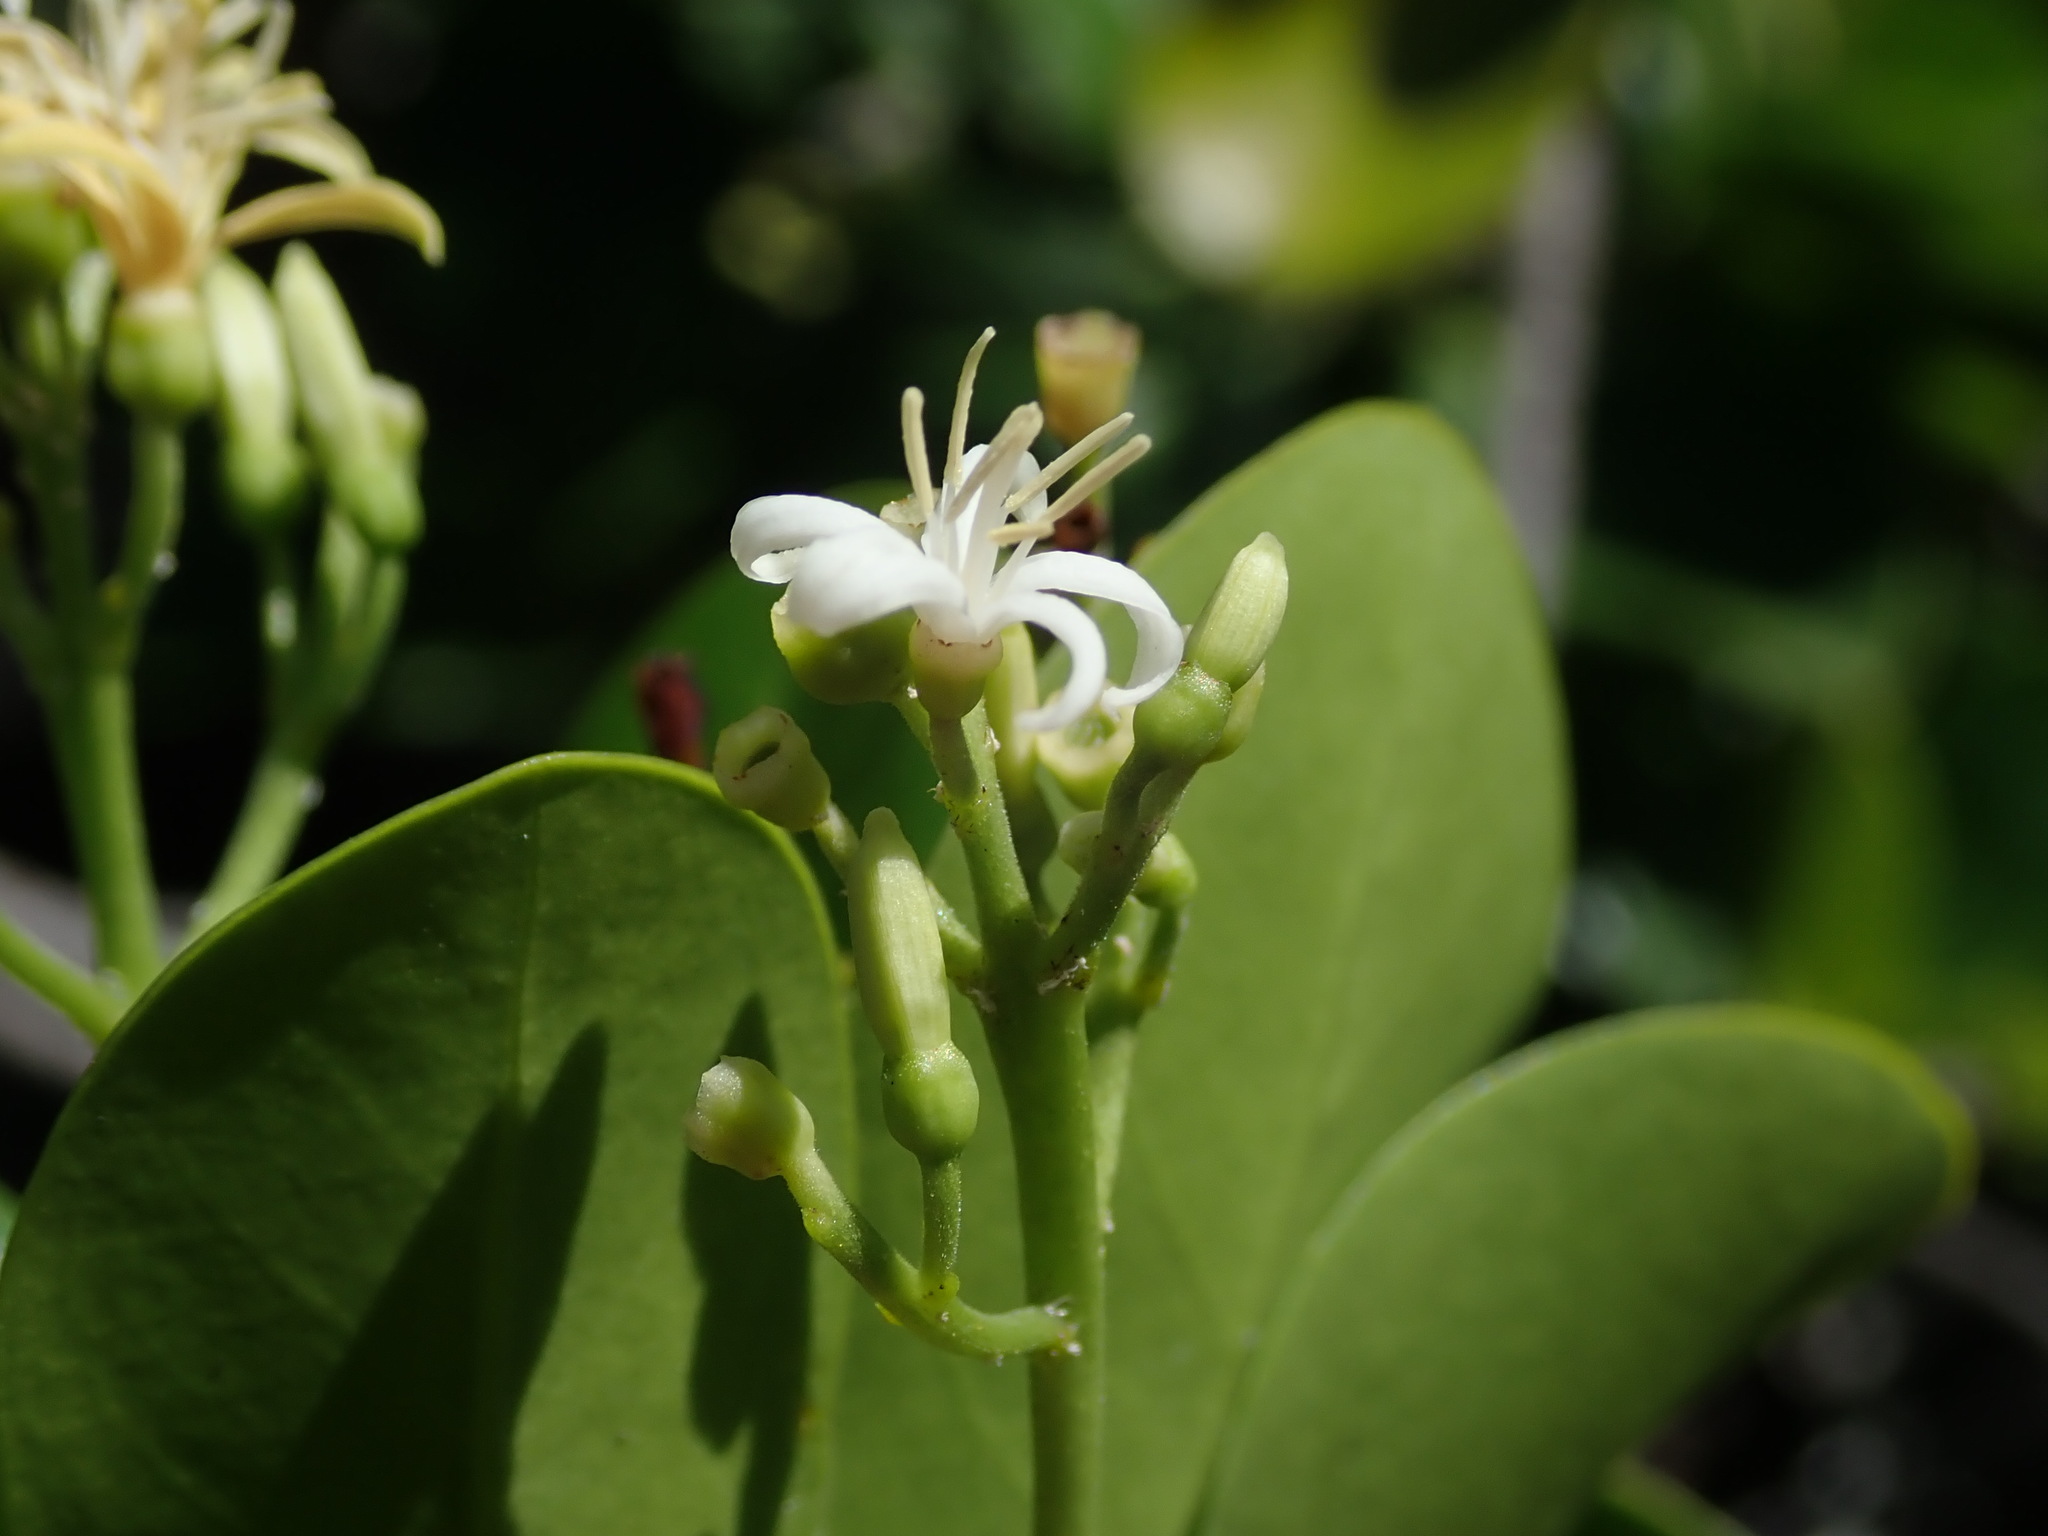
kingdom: Plantae
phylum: Tracheophyta
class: Magnoliopsida
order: Gentianales
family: Rubiaceae
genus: Erithalis
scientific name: Erithalis fruticosa
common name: Candlewood
